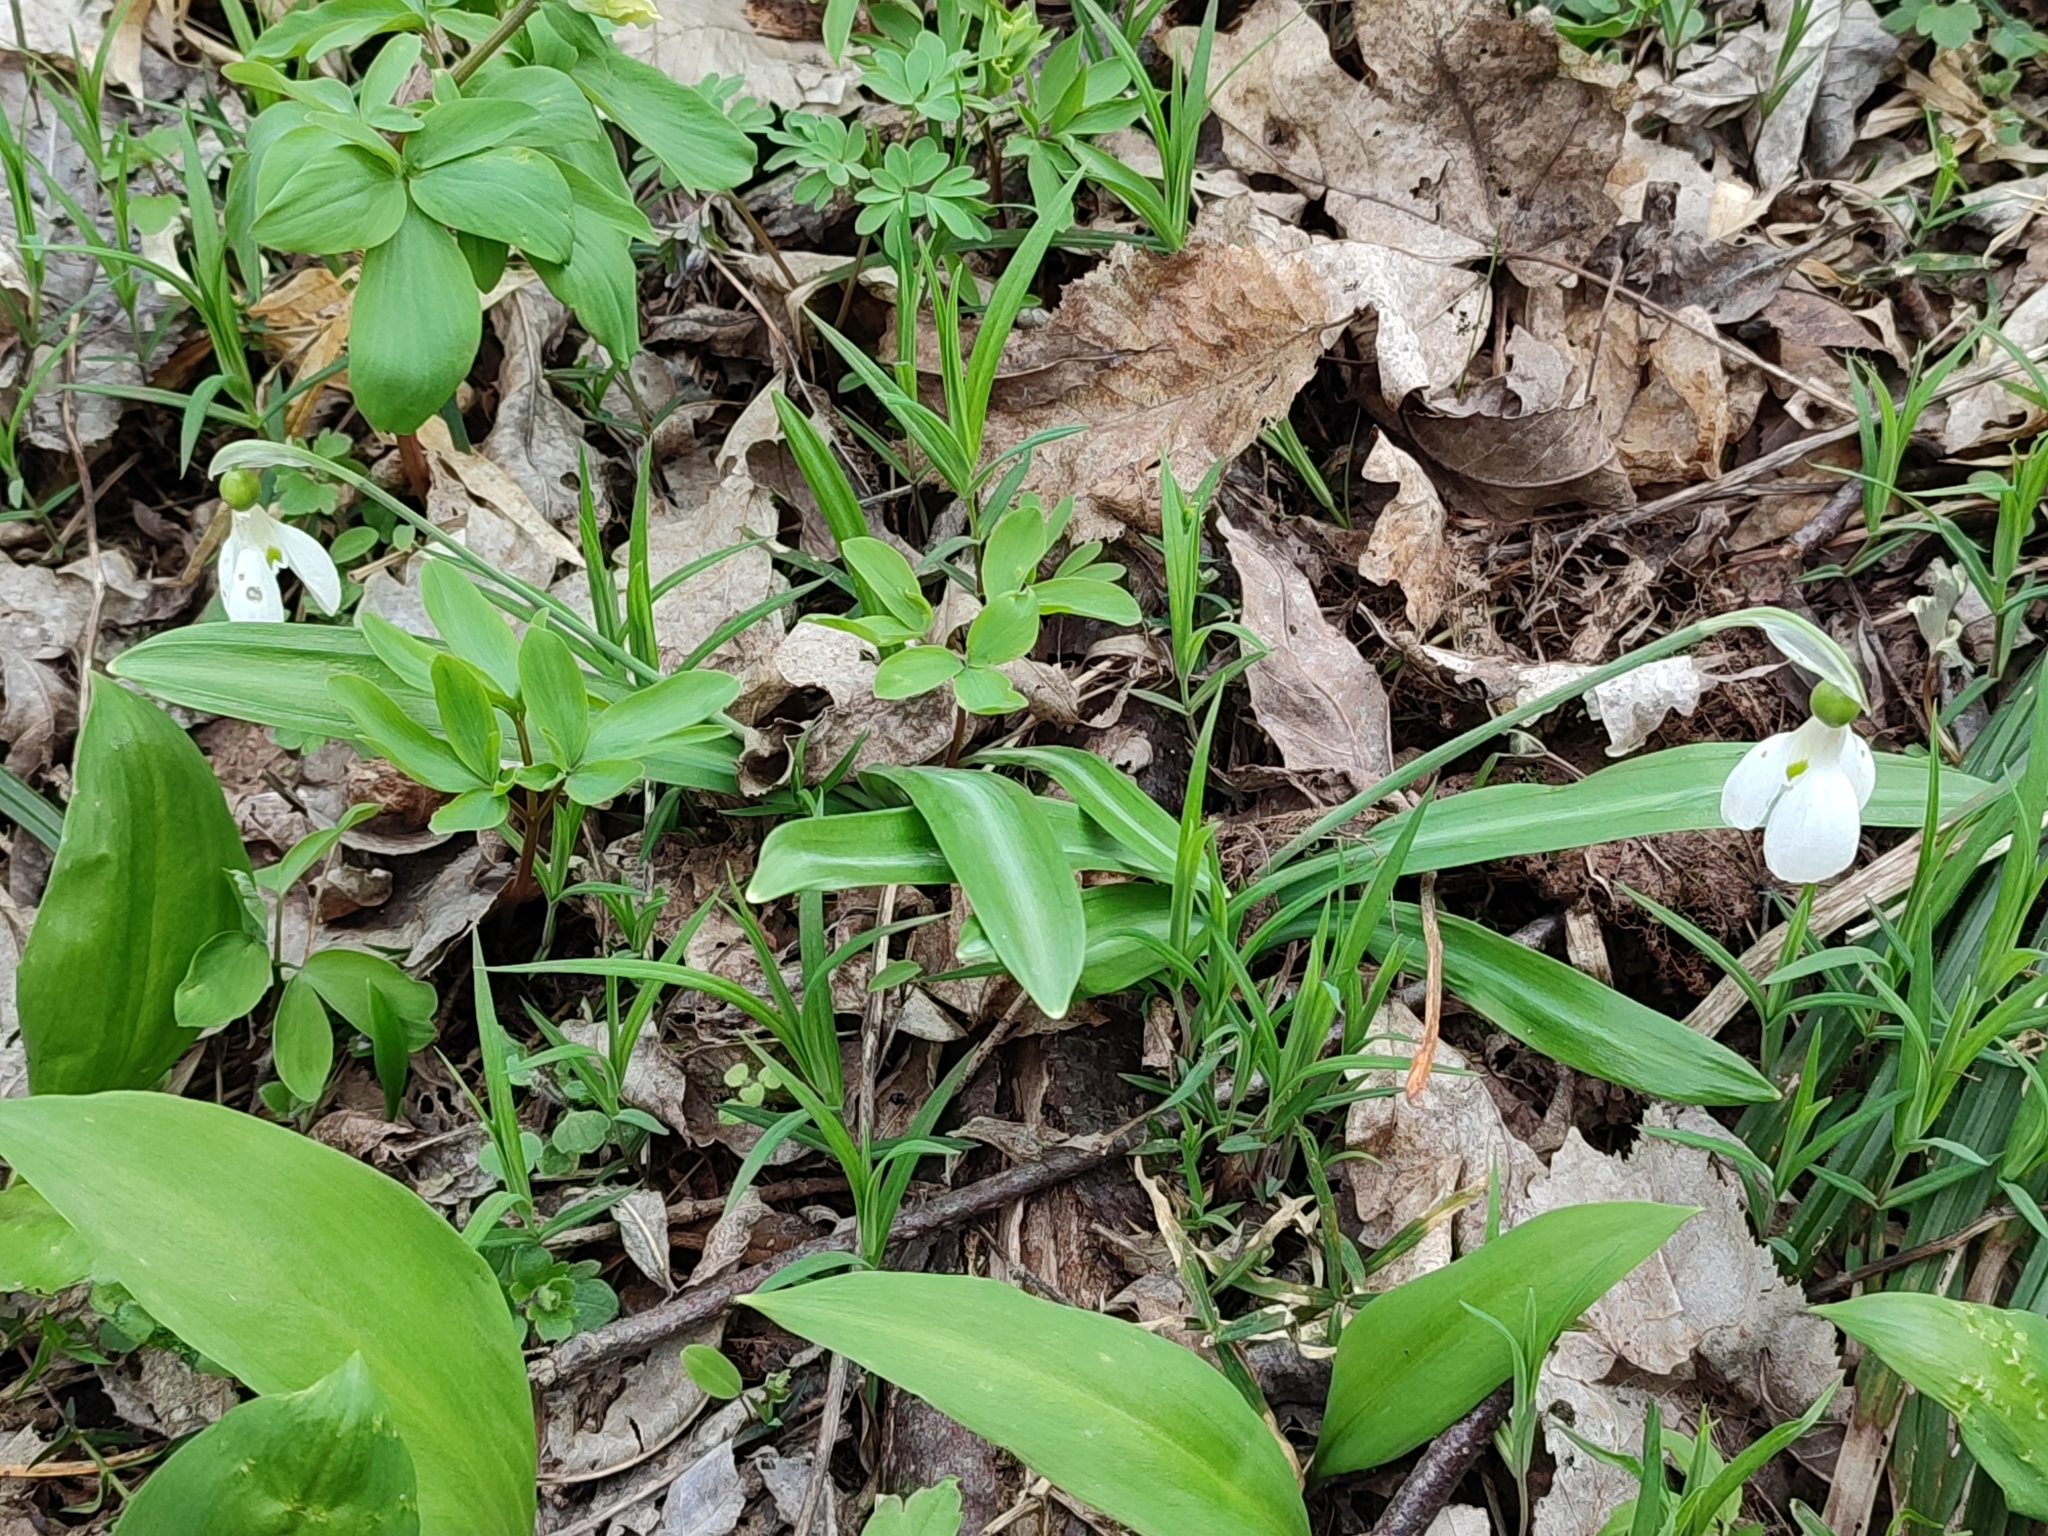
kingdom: Plantae
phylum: Tracheophyta
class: Liliopsida
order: Asparagales
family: Amaryllidaceae
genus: Galanthus
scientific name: Galanthus plicatus
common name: Pleated snowdrop
